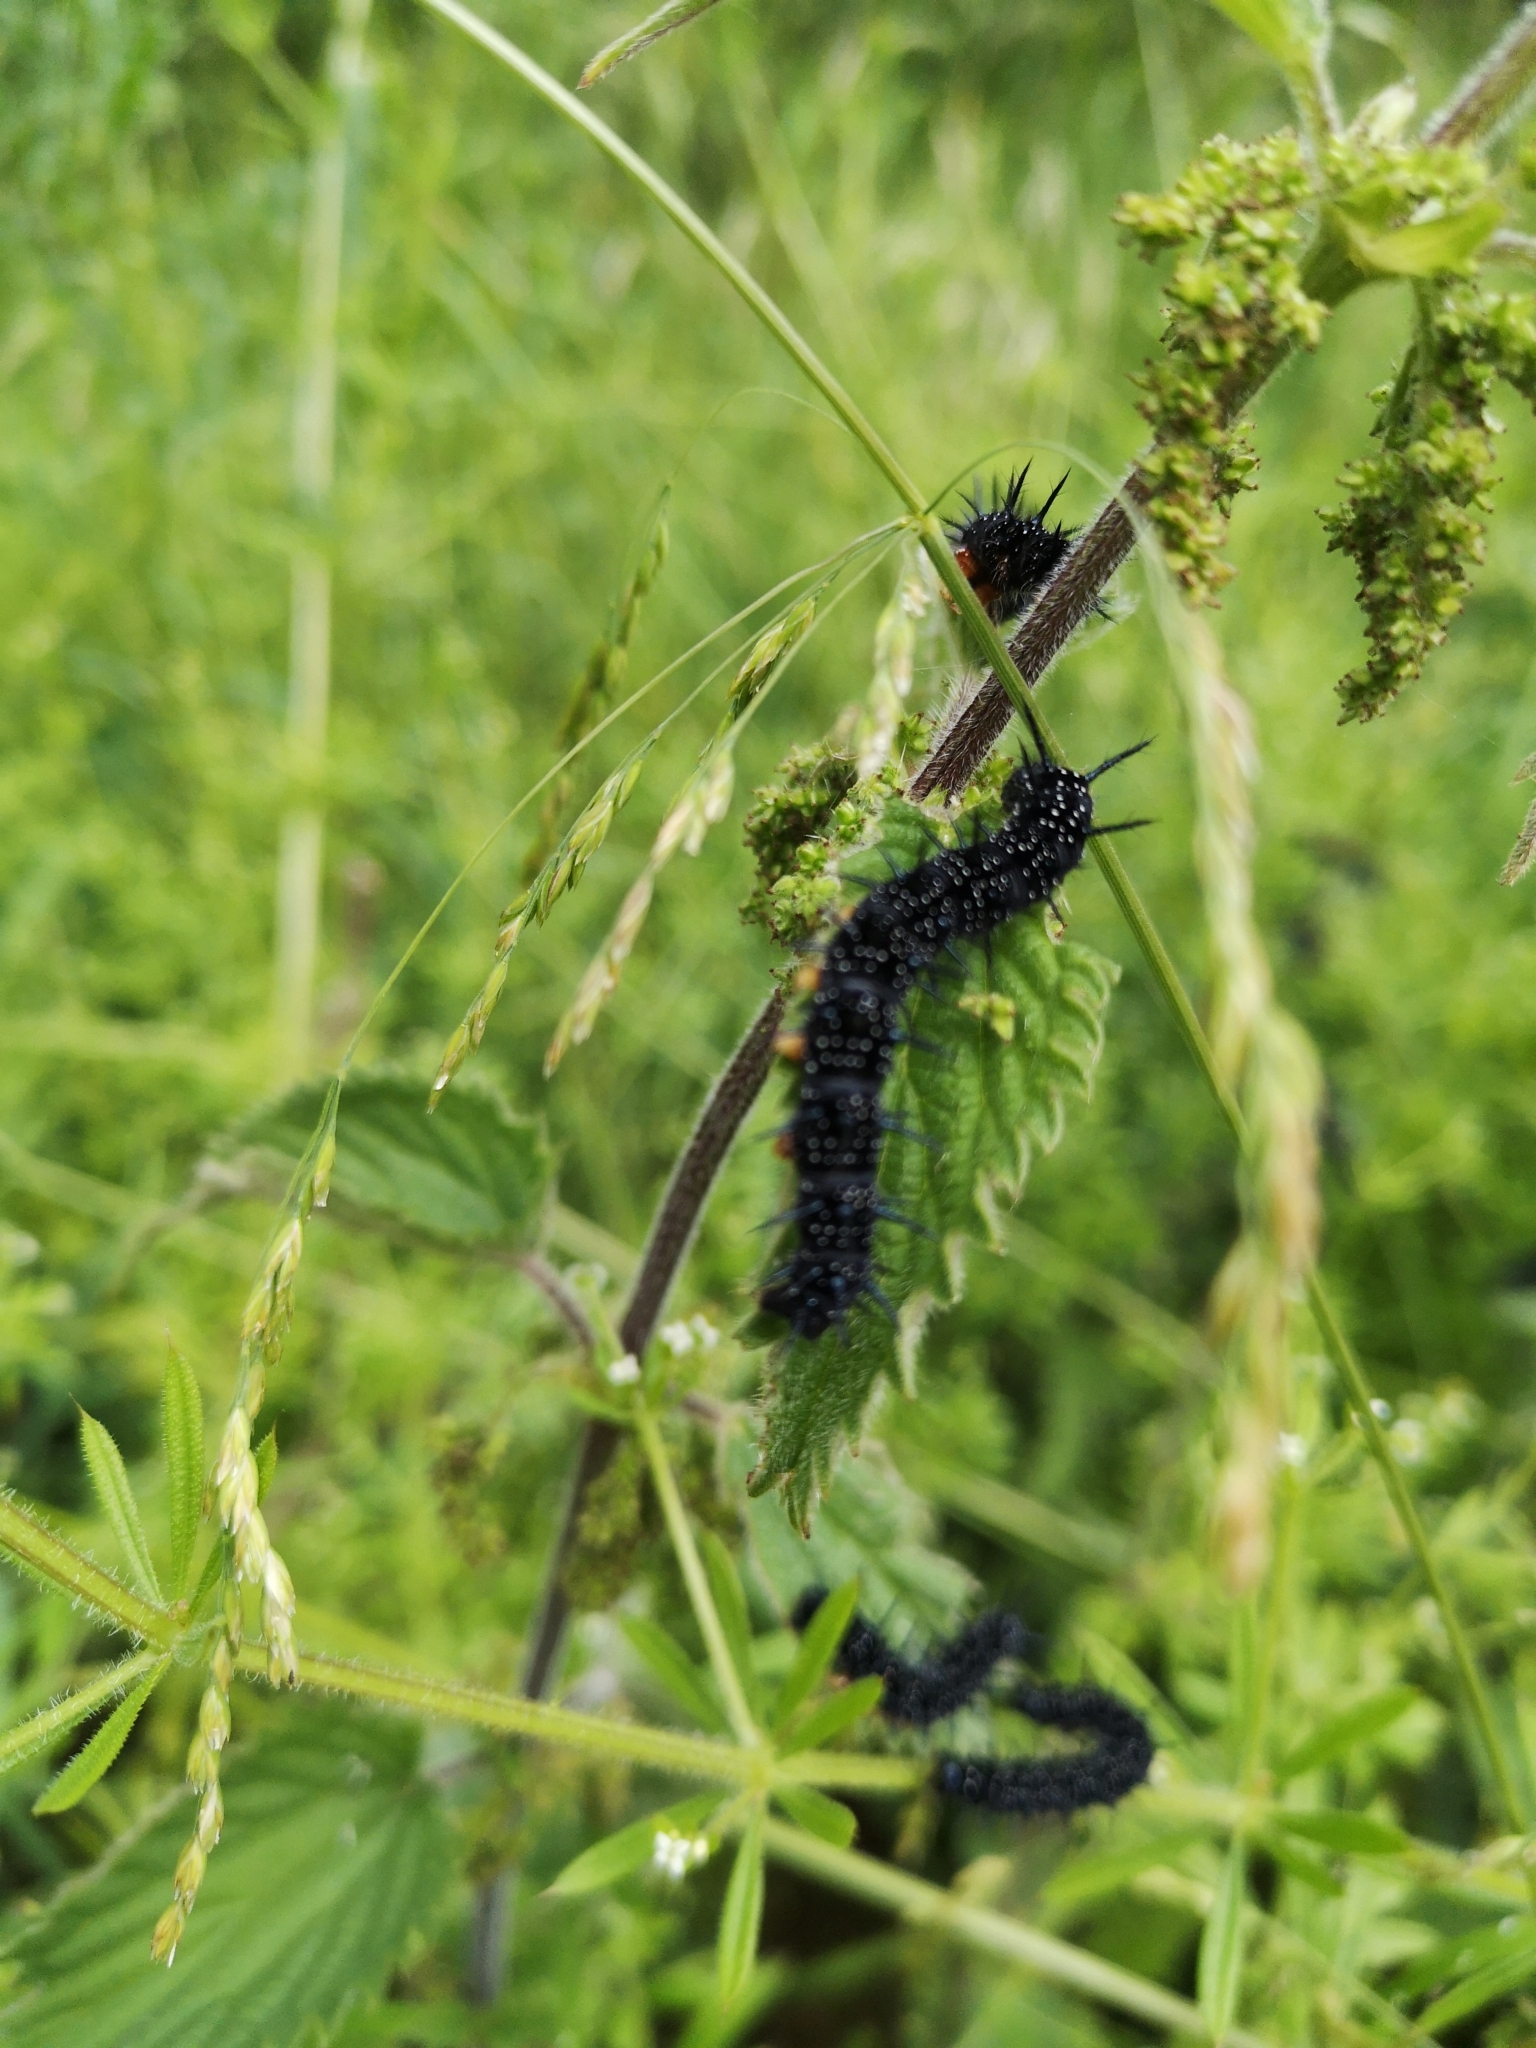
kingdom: Animalia
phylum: Arthropoda
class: Insecta
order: Lepidoptera
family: Nymphalidae
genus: Aglais
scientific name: Aglais io
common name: Peacock
